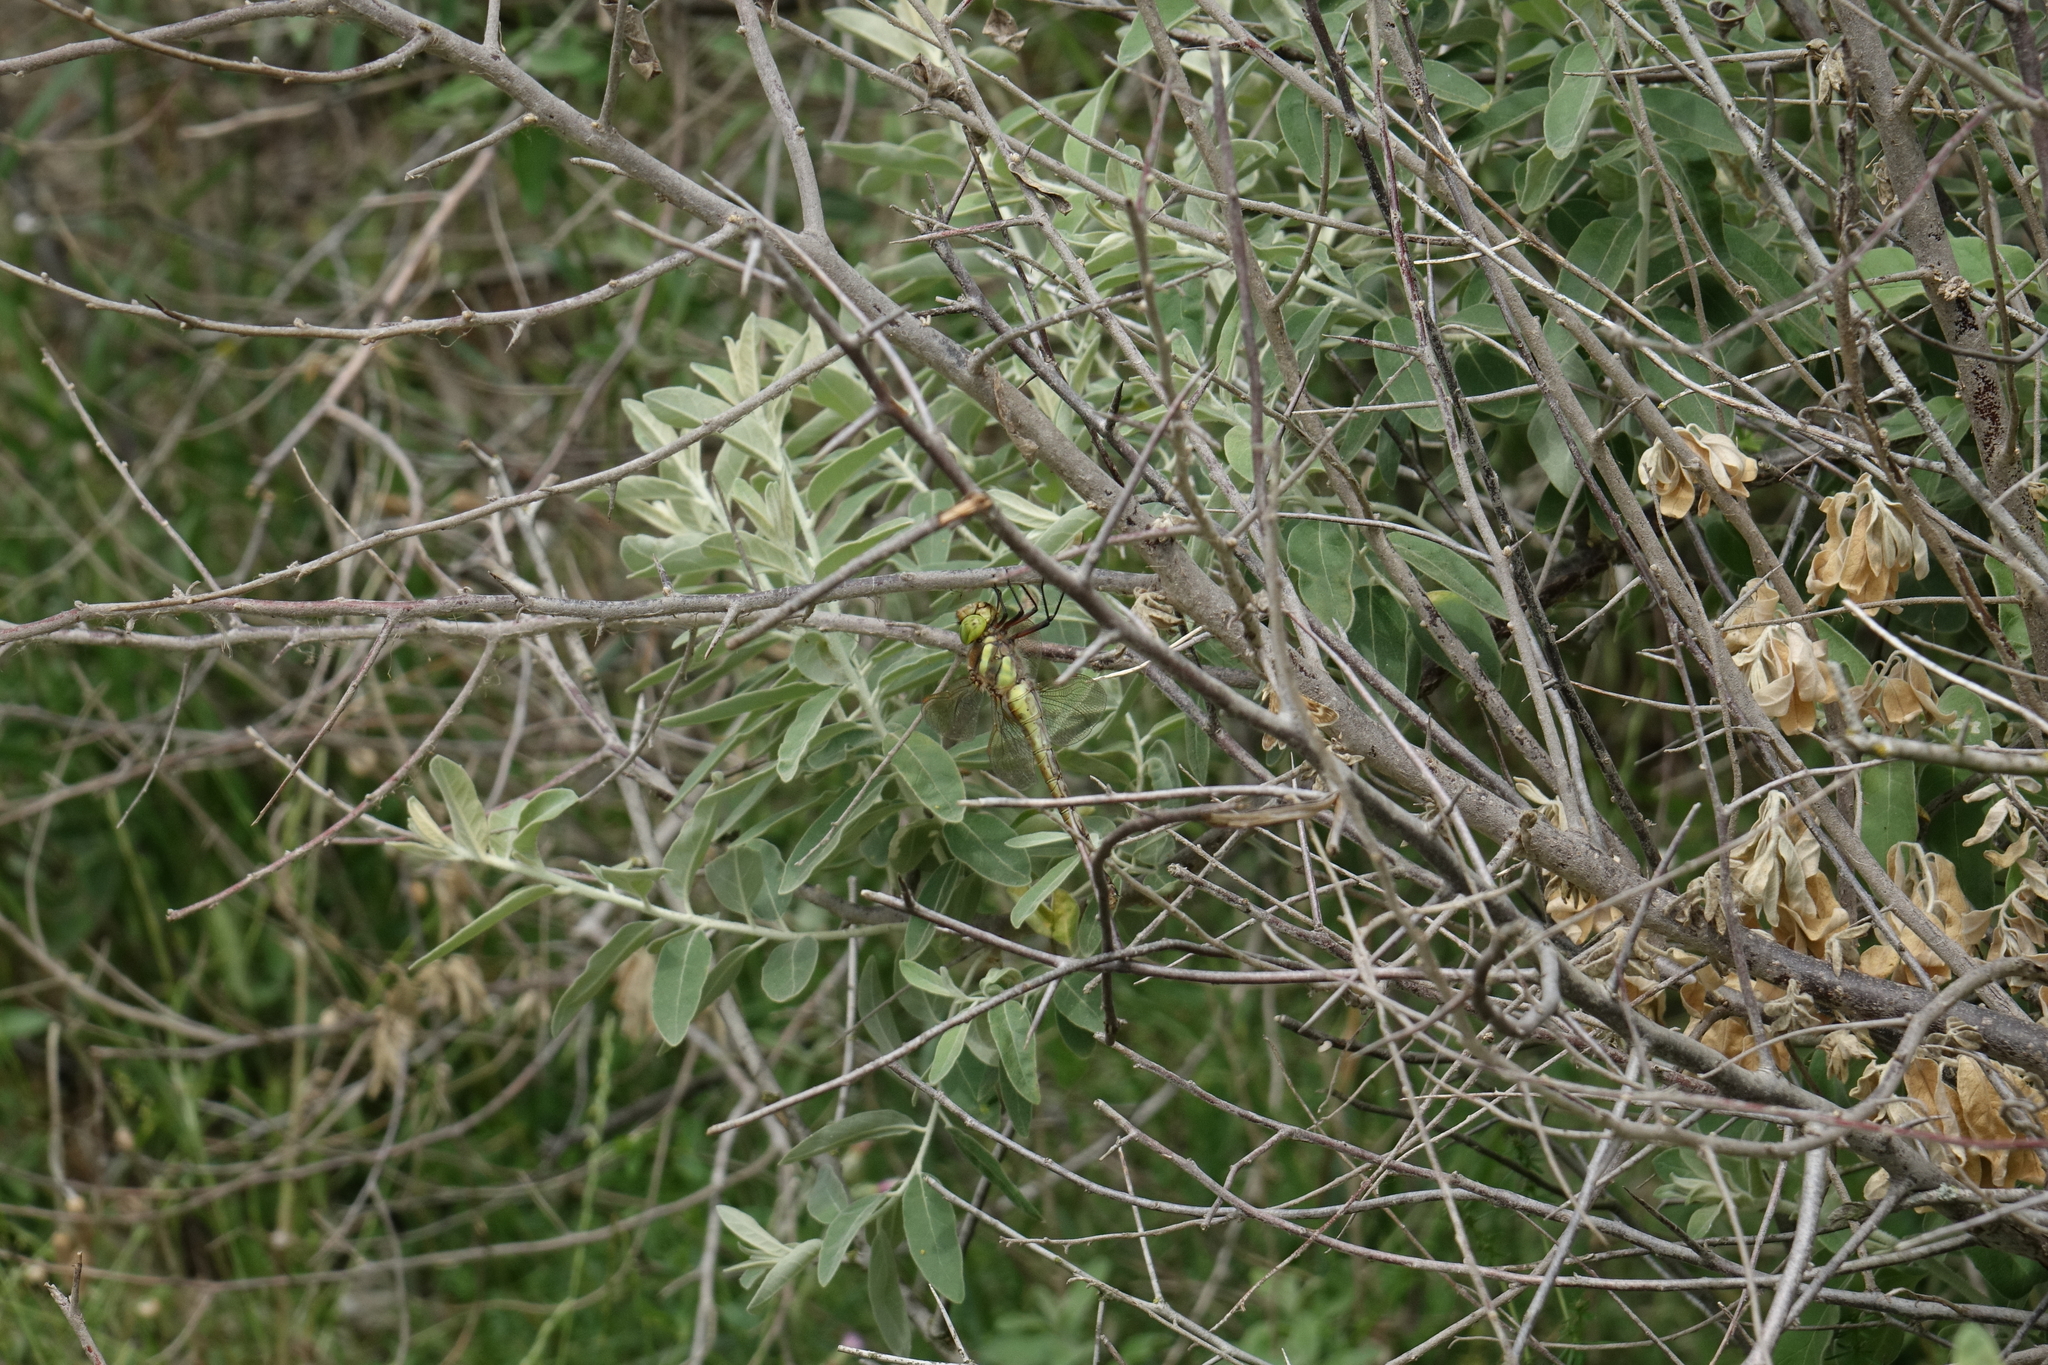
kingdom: Plantae
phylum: Tracheophyta
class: Magnoliopsida
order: Rosales
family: Elaeagnaceae
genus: Elaeagnus
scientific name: Elaeagnus angustifolia
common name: Russian olive
